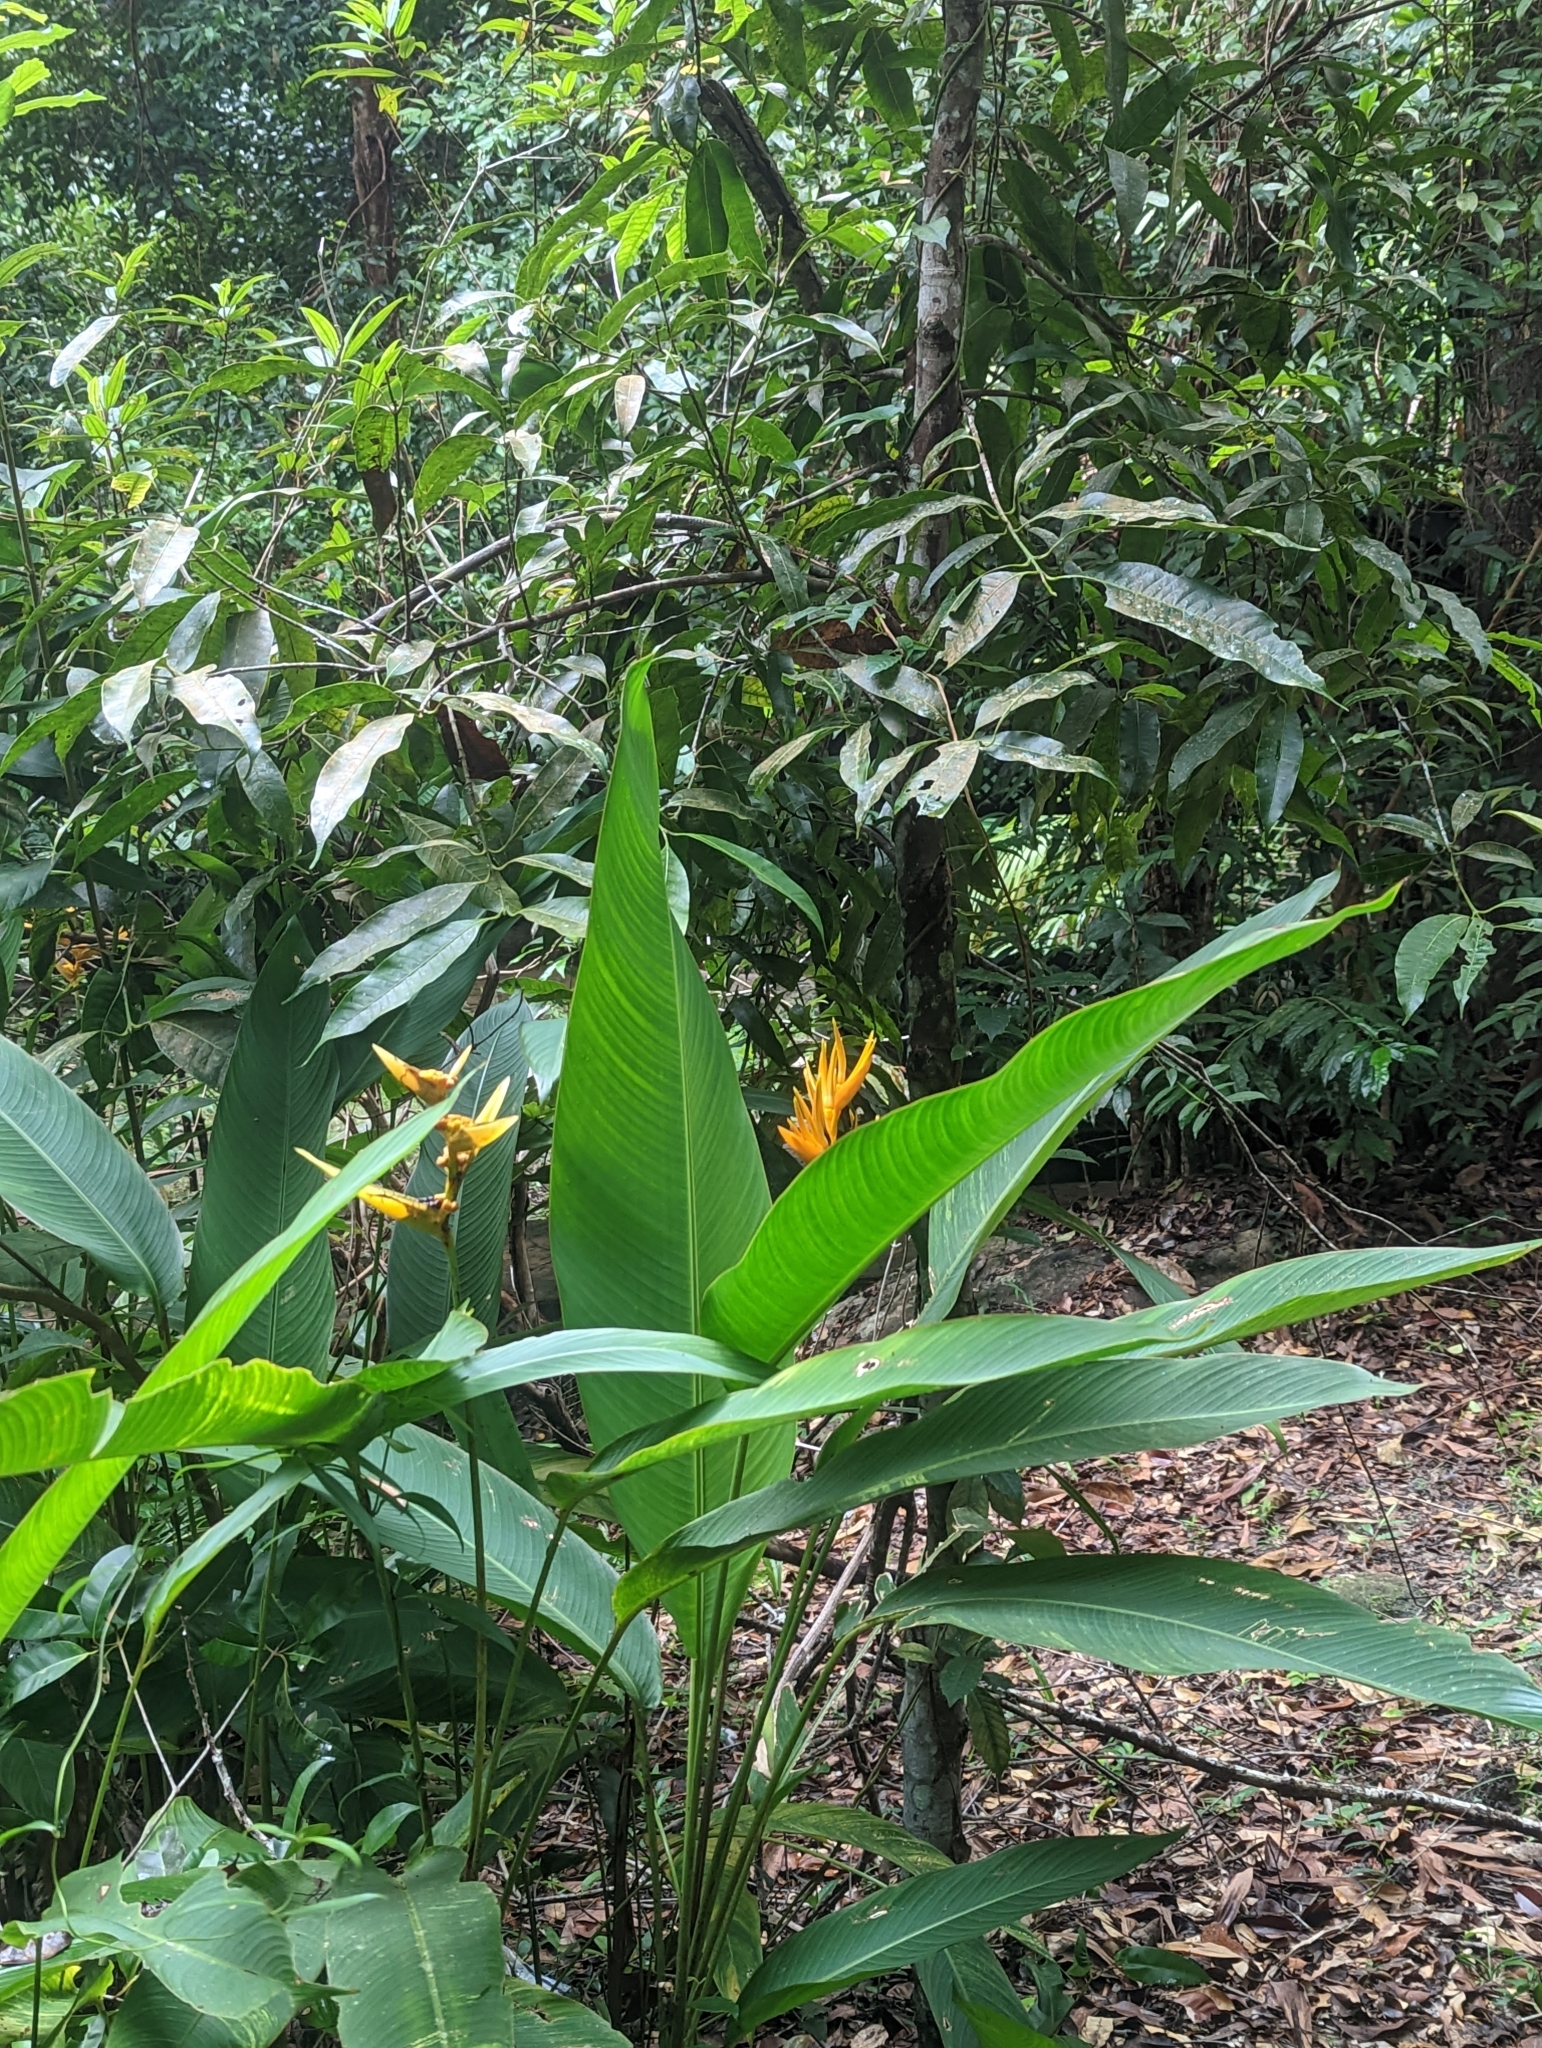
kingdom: Plantae
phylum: Tracheophyta
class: Liliopsida
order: Zingiberales
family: Heliconiaceae
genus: Heliconia
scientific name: Heliconia psittacorum
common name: Parrot's-flower
